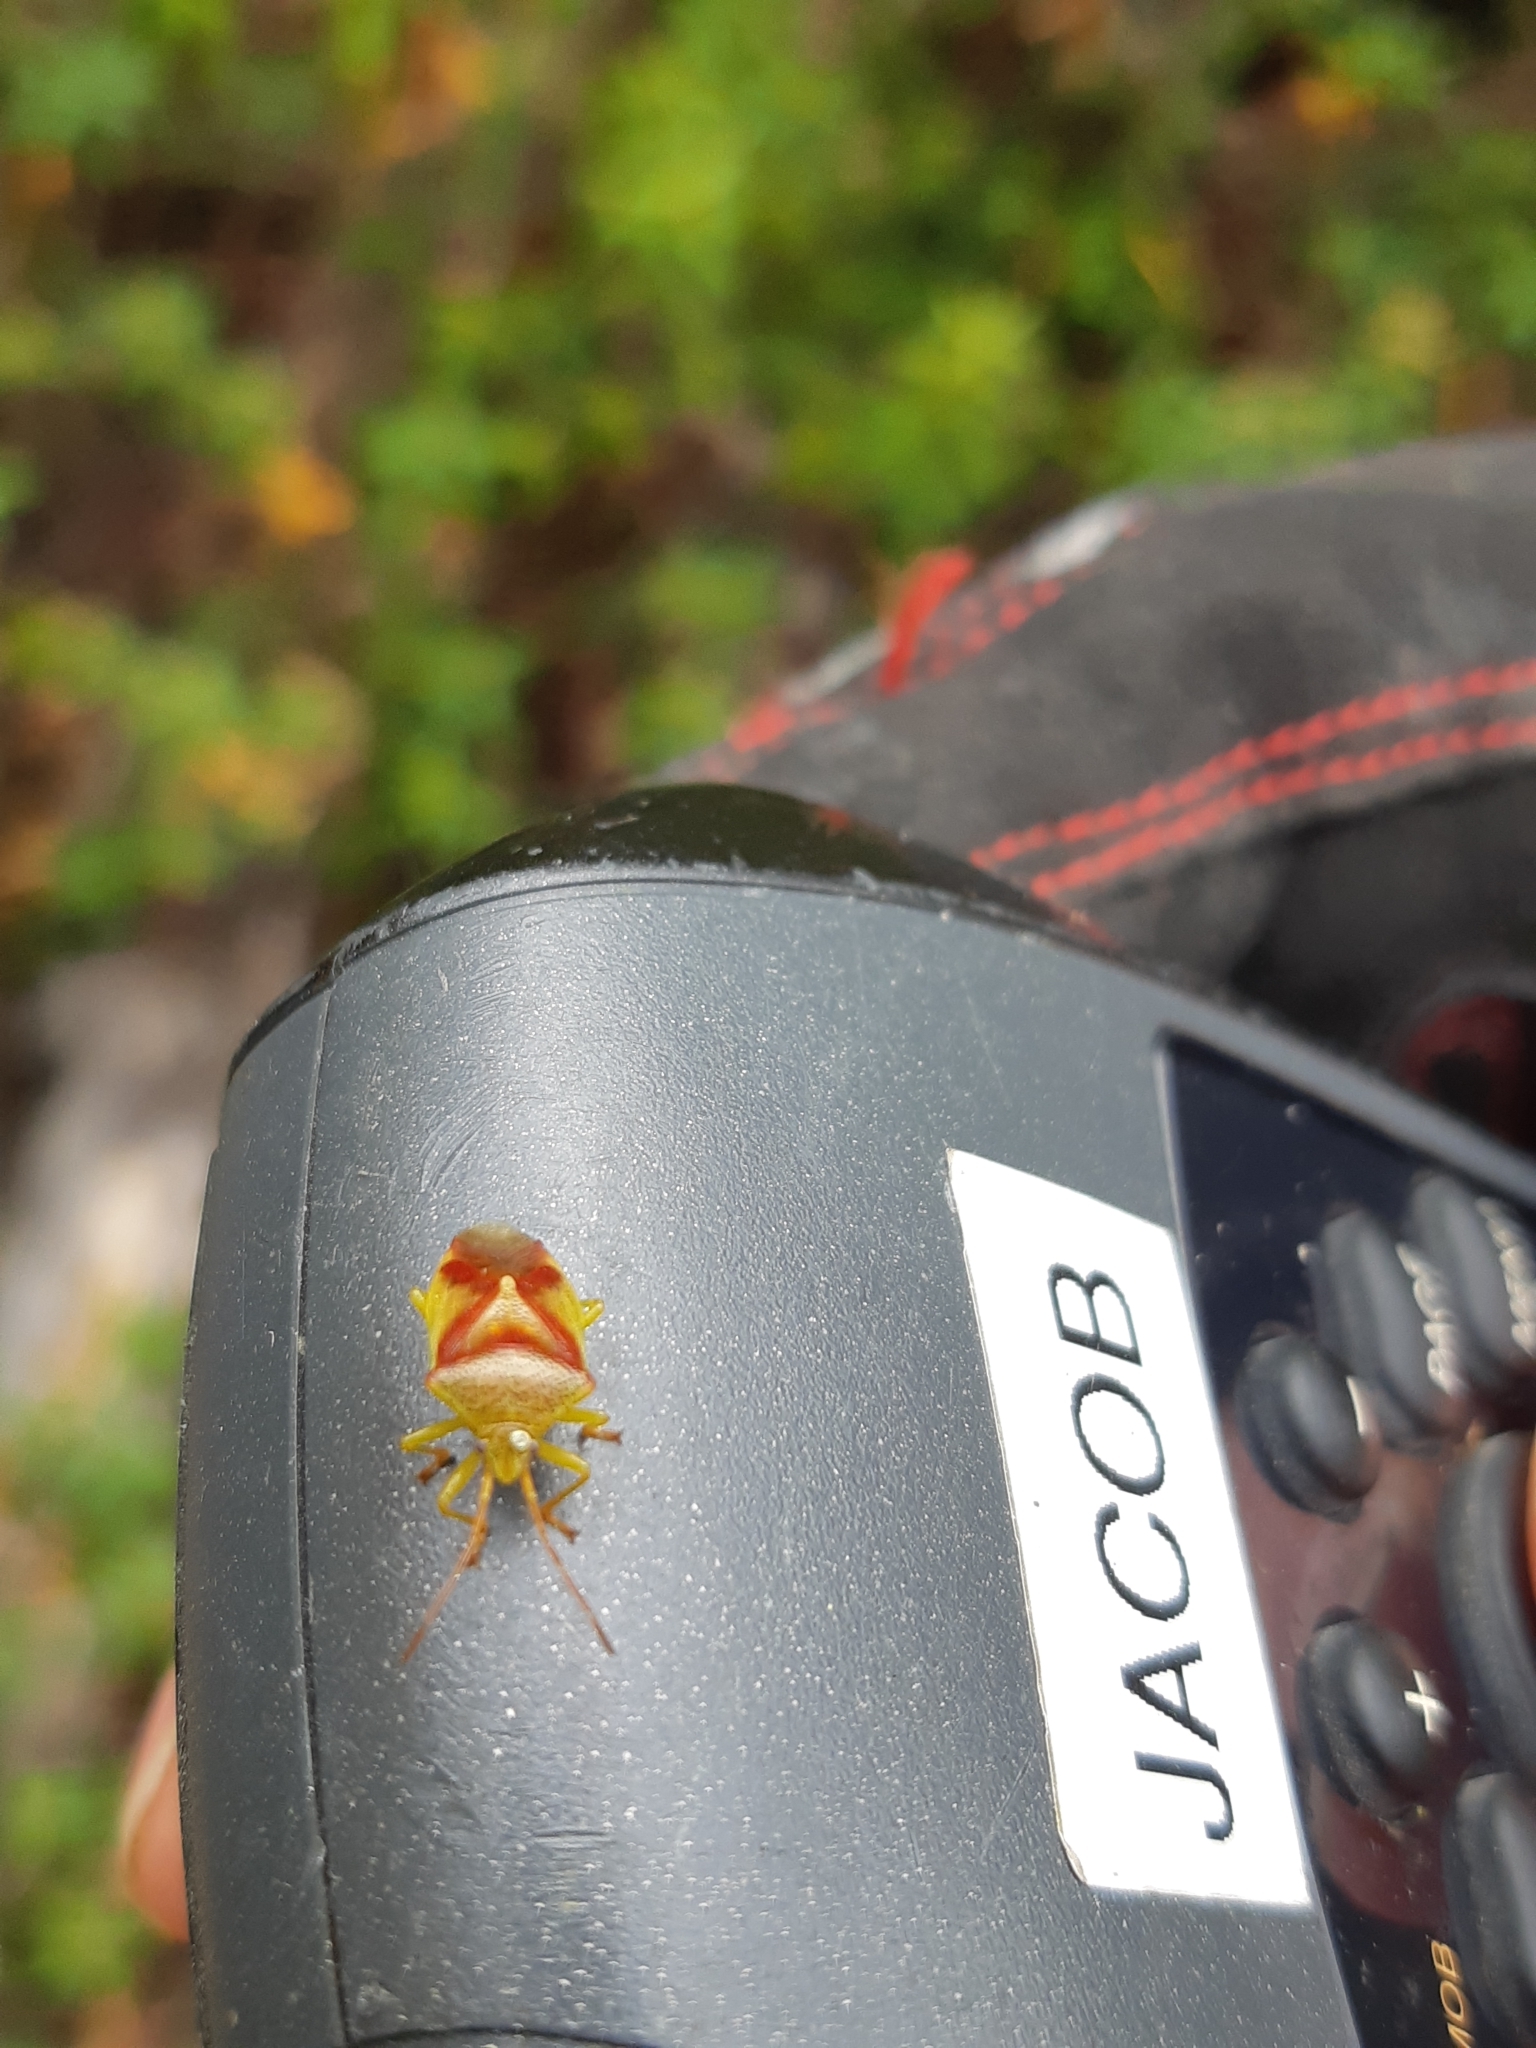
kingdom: Animalia
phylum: Arthropoda
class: Insecta
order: Hemiptera
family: Acanthosomatidae
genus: Elasmostethus
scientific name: Elasmostethus cruciatus
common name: Red-cross shield bug
